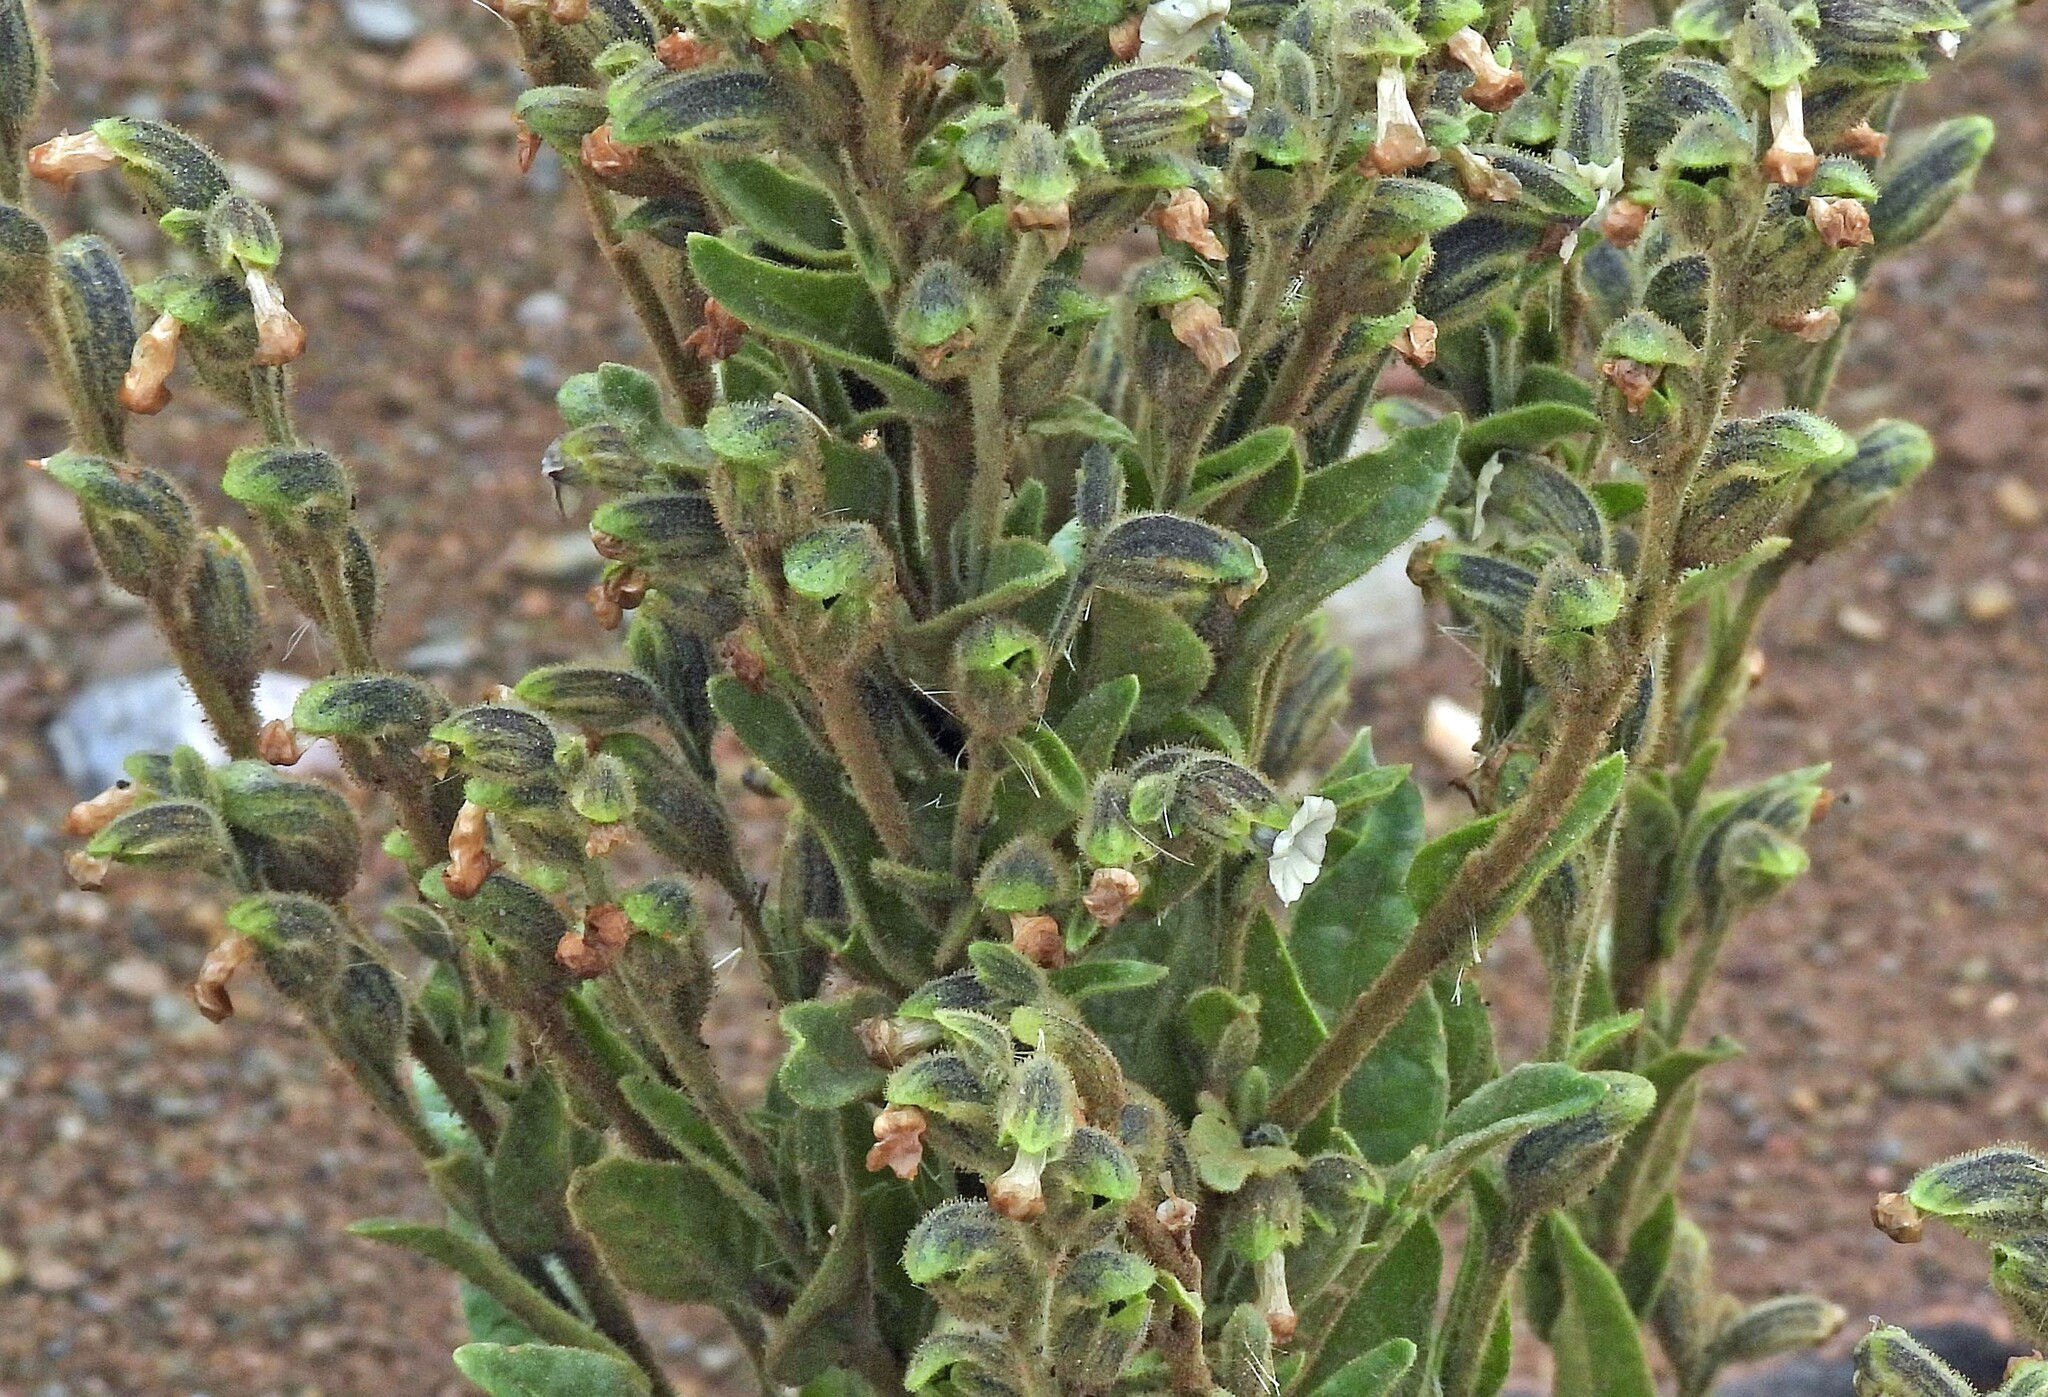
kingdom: Plantae
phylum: Tracheophyta
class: Magnoliopsida
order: Solanales
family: Solanaceae
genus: Nicotiana
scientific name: Nicotiana undulata
